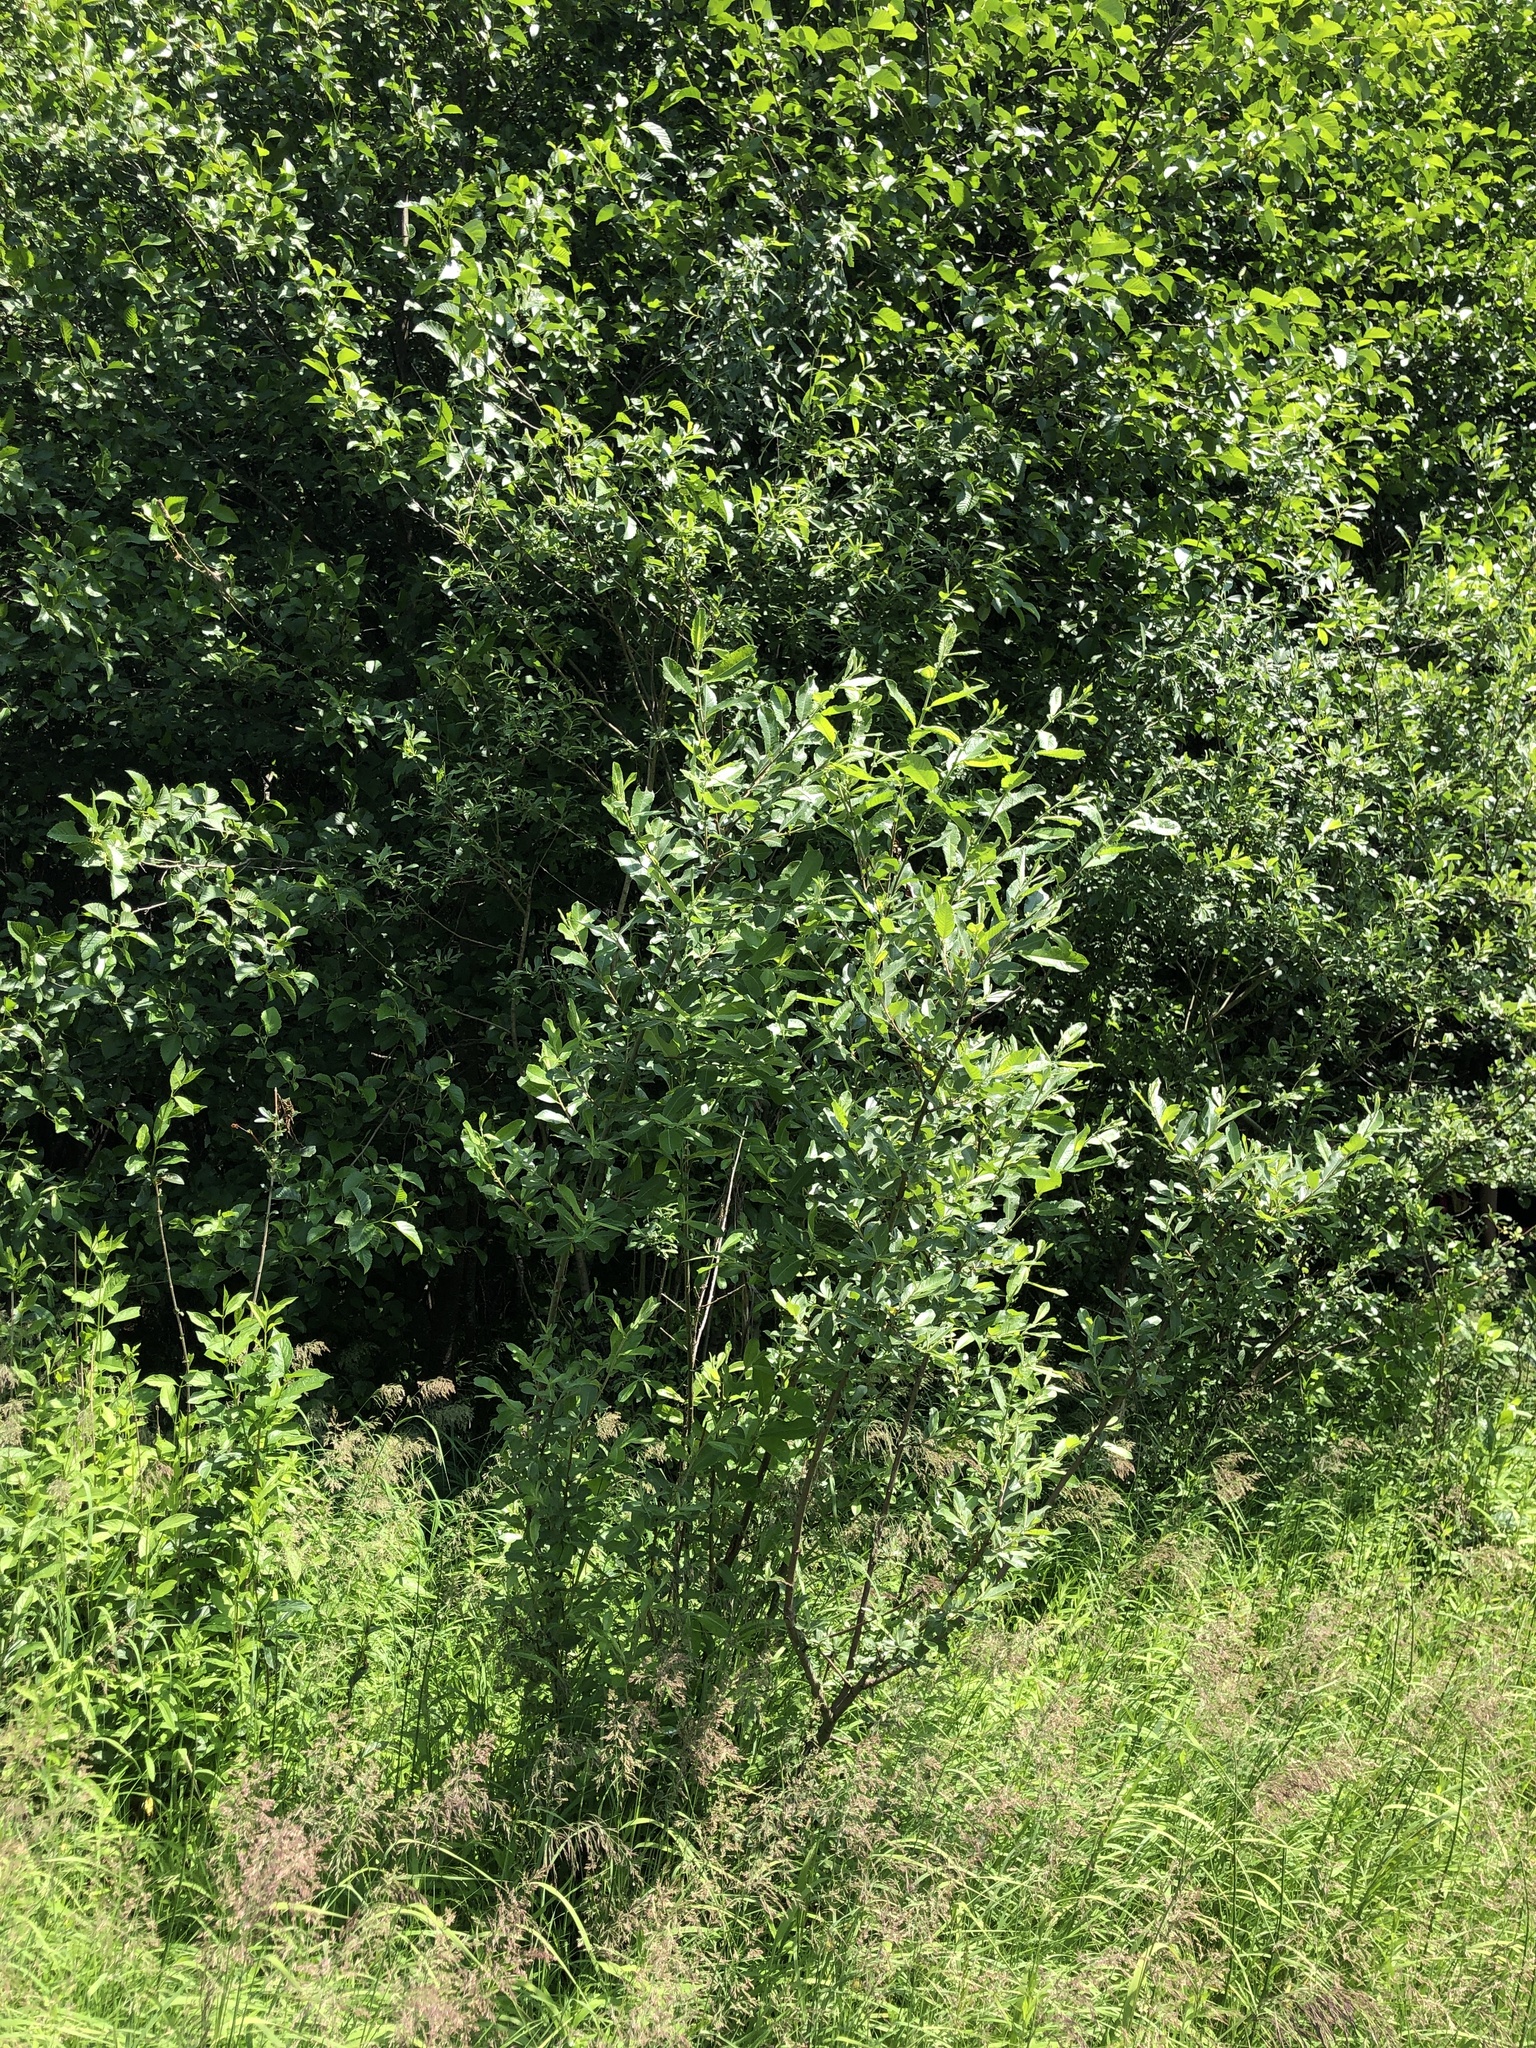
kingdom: Plantae
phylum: Tracheophyta
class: Magnoliopsida
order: Malpighiales
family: Salicaceae
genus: Salix
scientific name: Salix sitchensis
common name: Sitka willow
